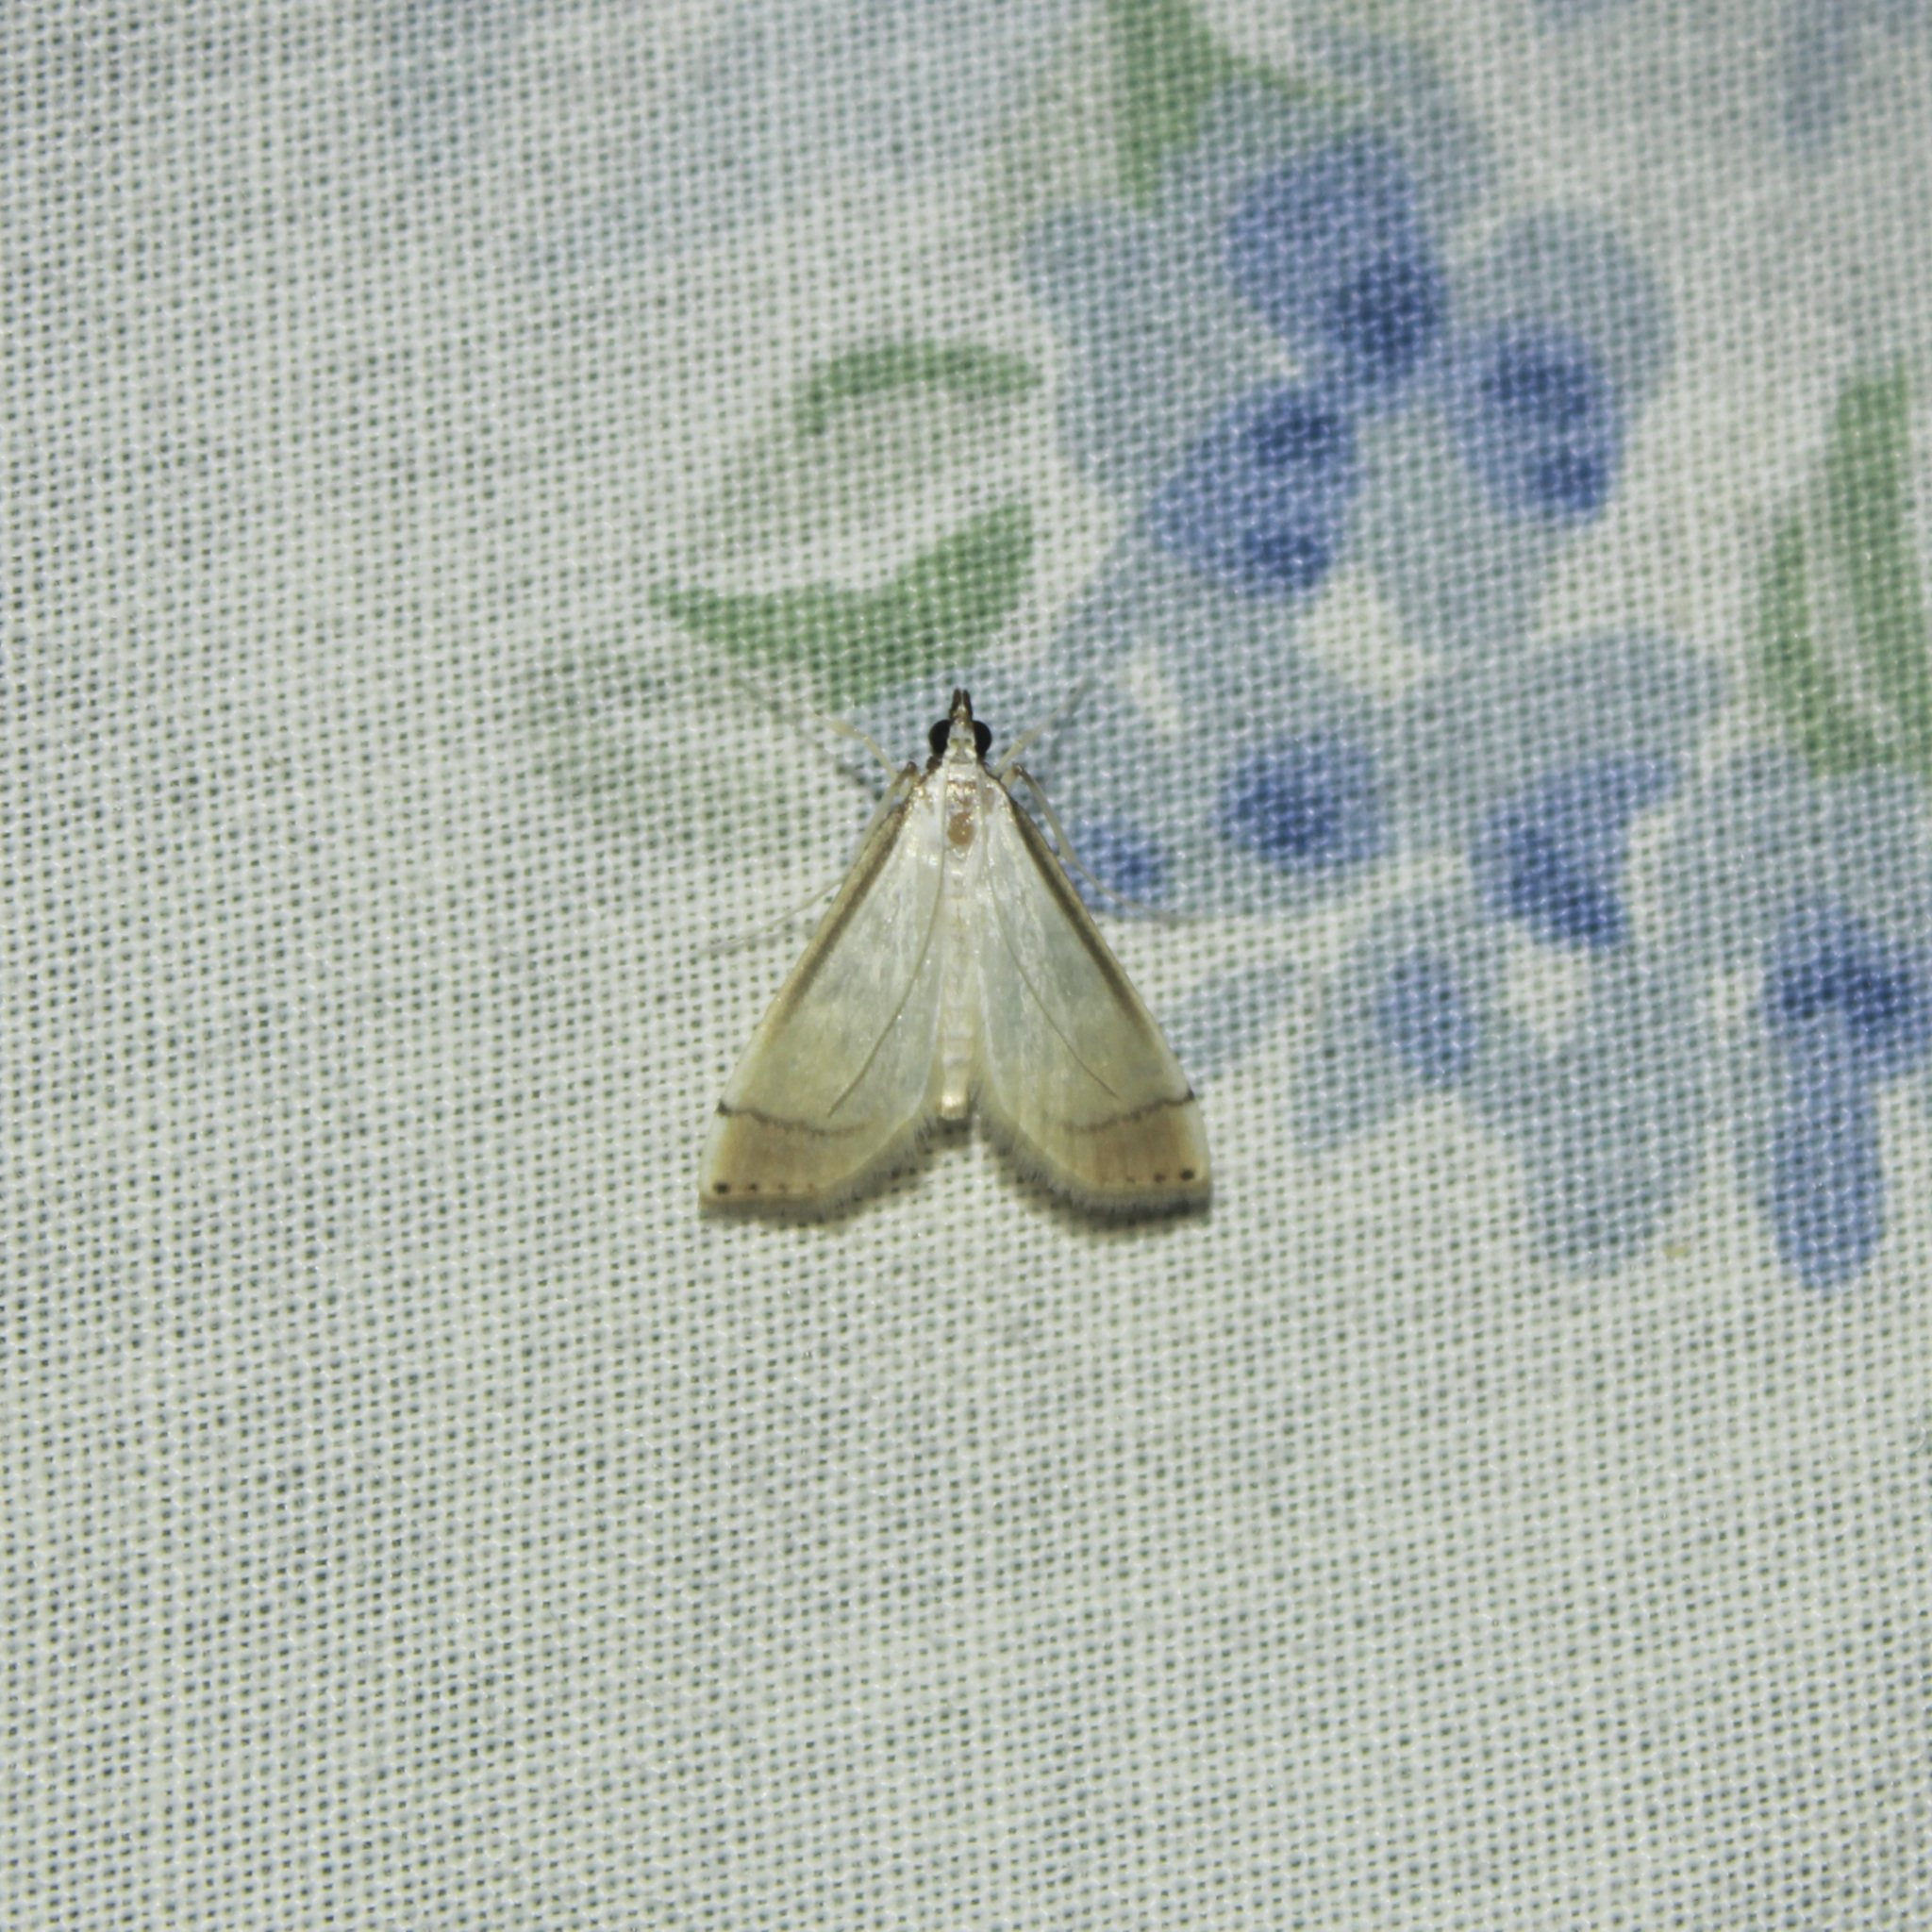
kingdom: Animalia
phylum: Arthropoda
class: Insecta
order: Lepidoptera
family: Crambidae
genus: Stenia
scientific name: Stenia saurialis
